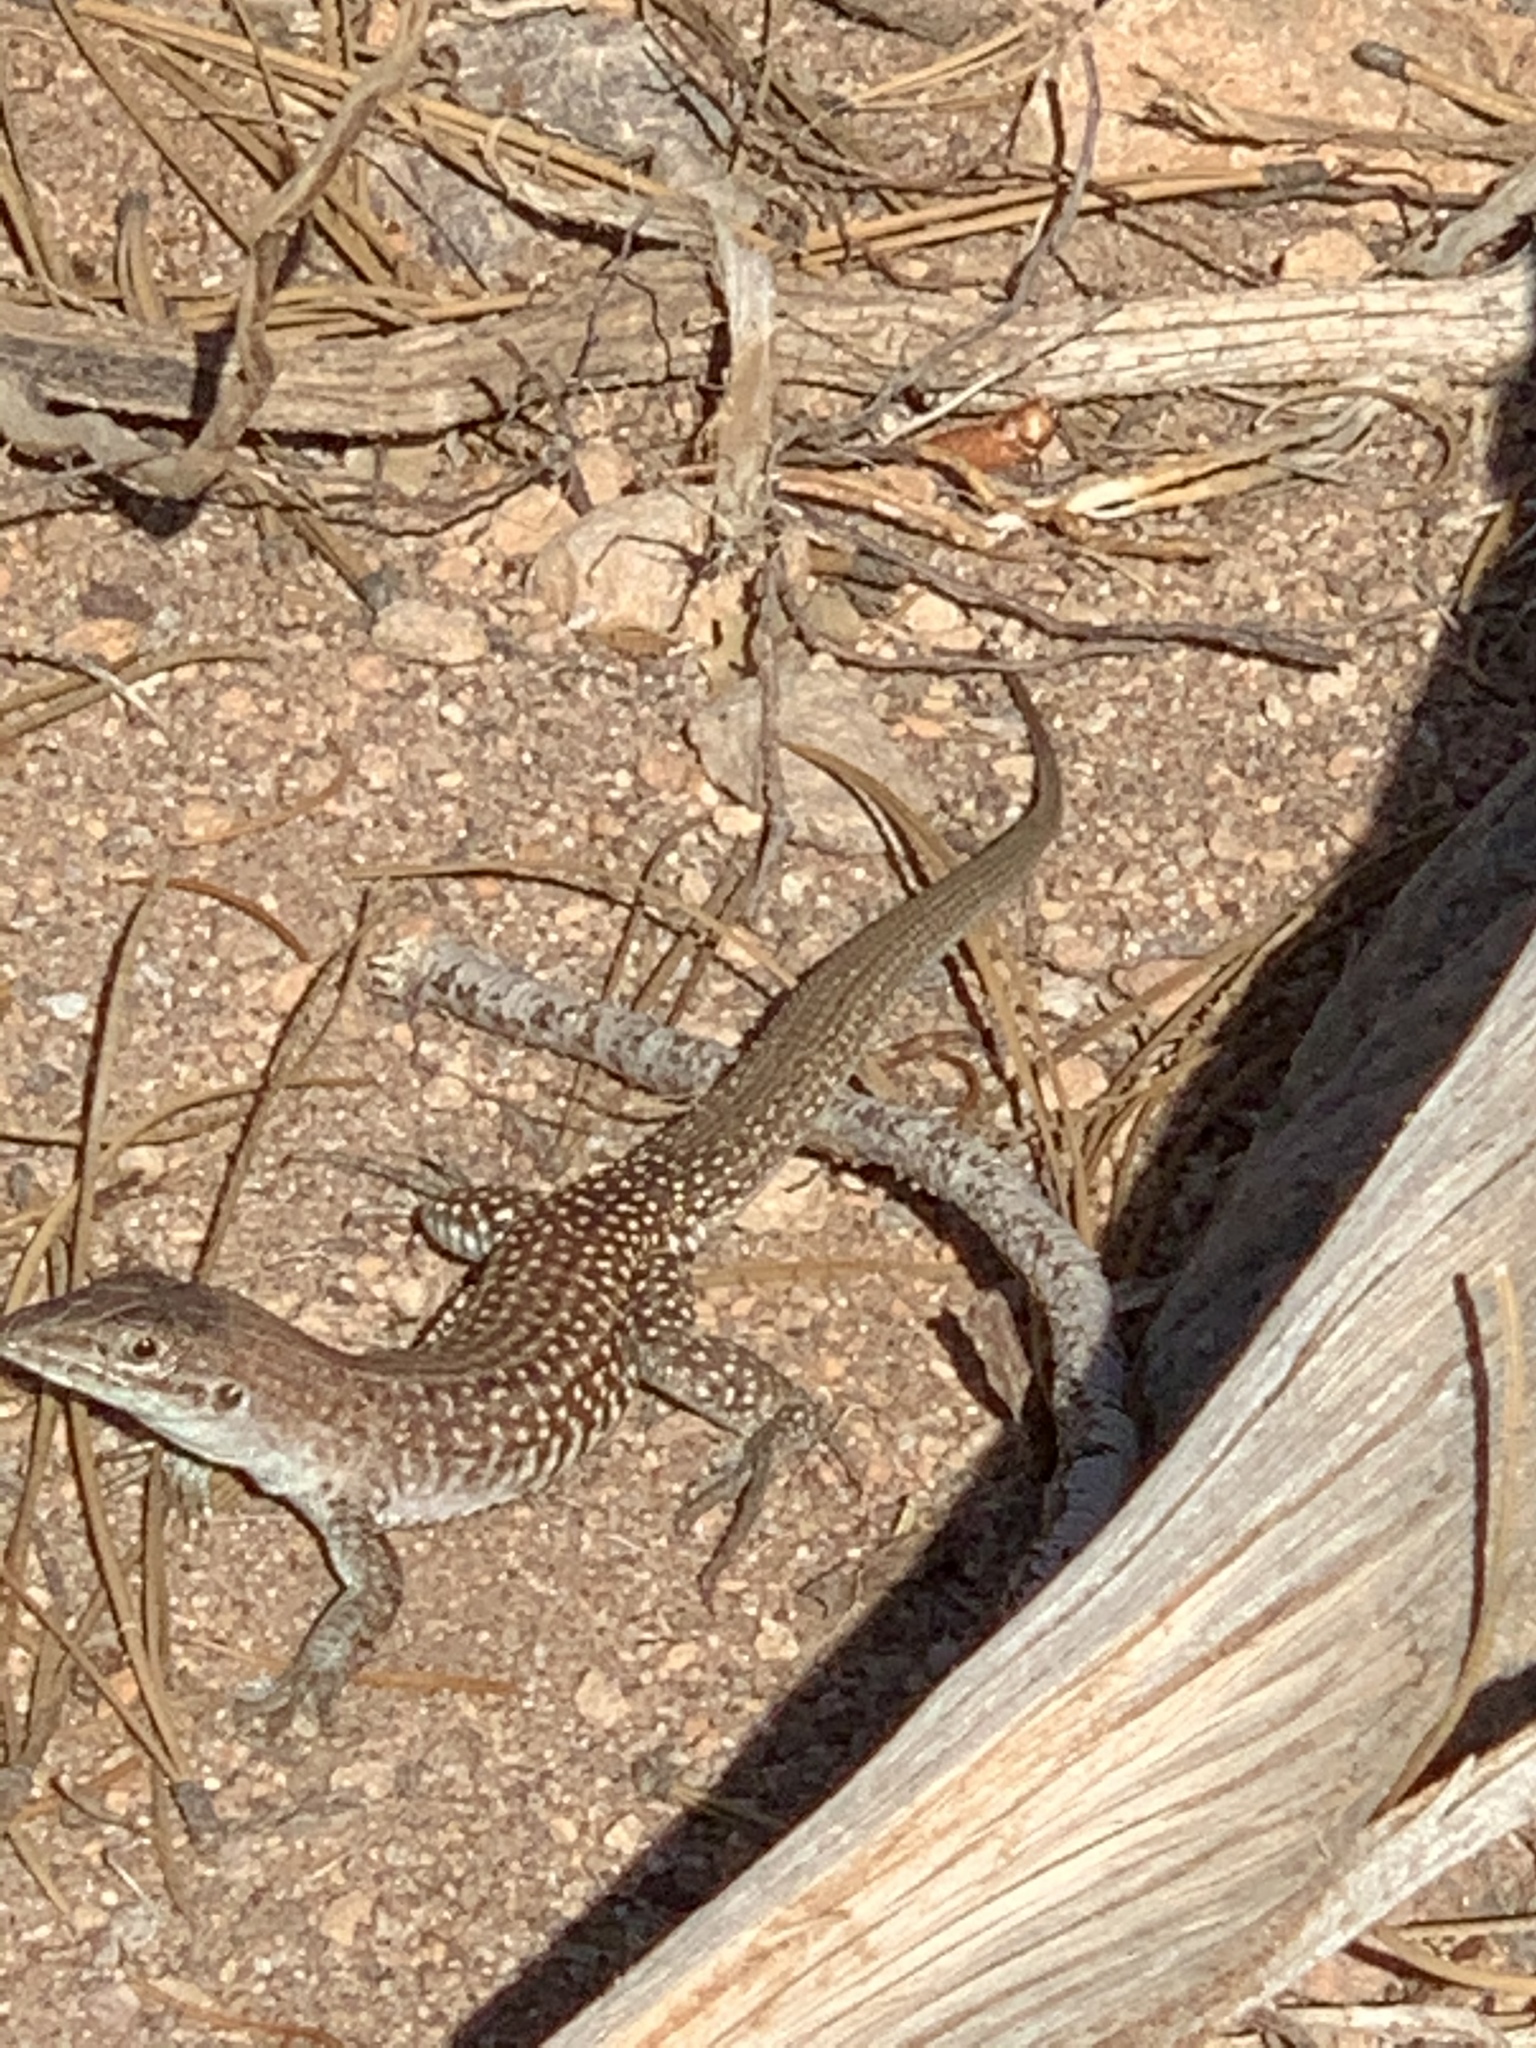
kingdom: Animalia
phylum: Chordata
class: Squamata
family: Teiidae
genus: Aspidoscelis
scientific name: Aspidoscelis exsanguis
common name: Chihuahuan spotted whiptail
